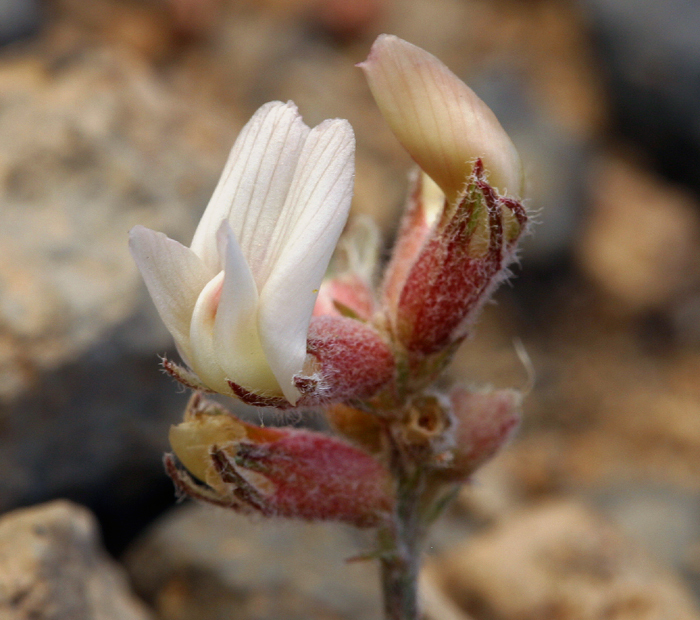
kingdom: Plantae
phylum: Tracheophyta
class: Magnoliopsida
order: Fabales
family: Fabaceae
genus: Astragalus
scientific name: Astragalus monoensis
